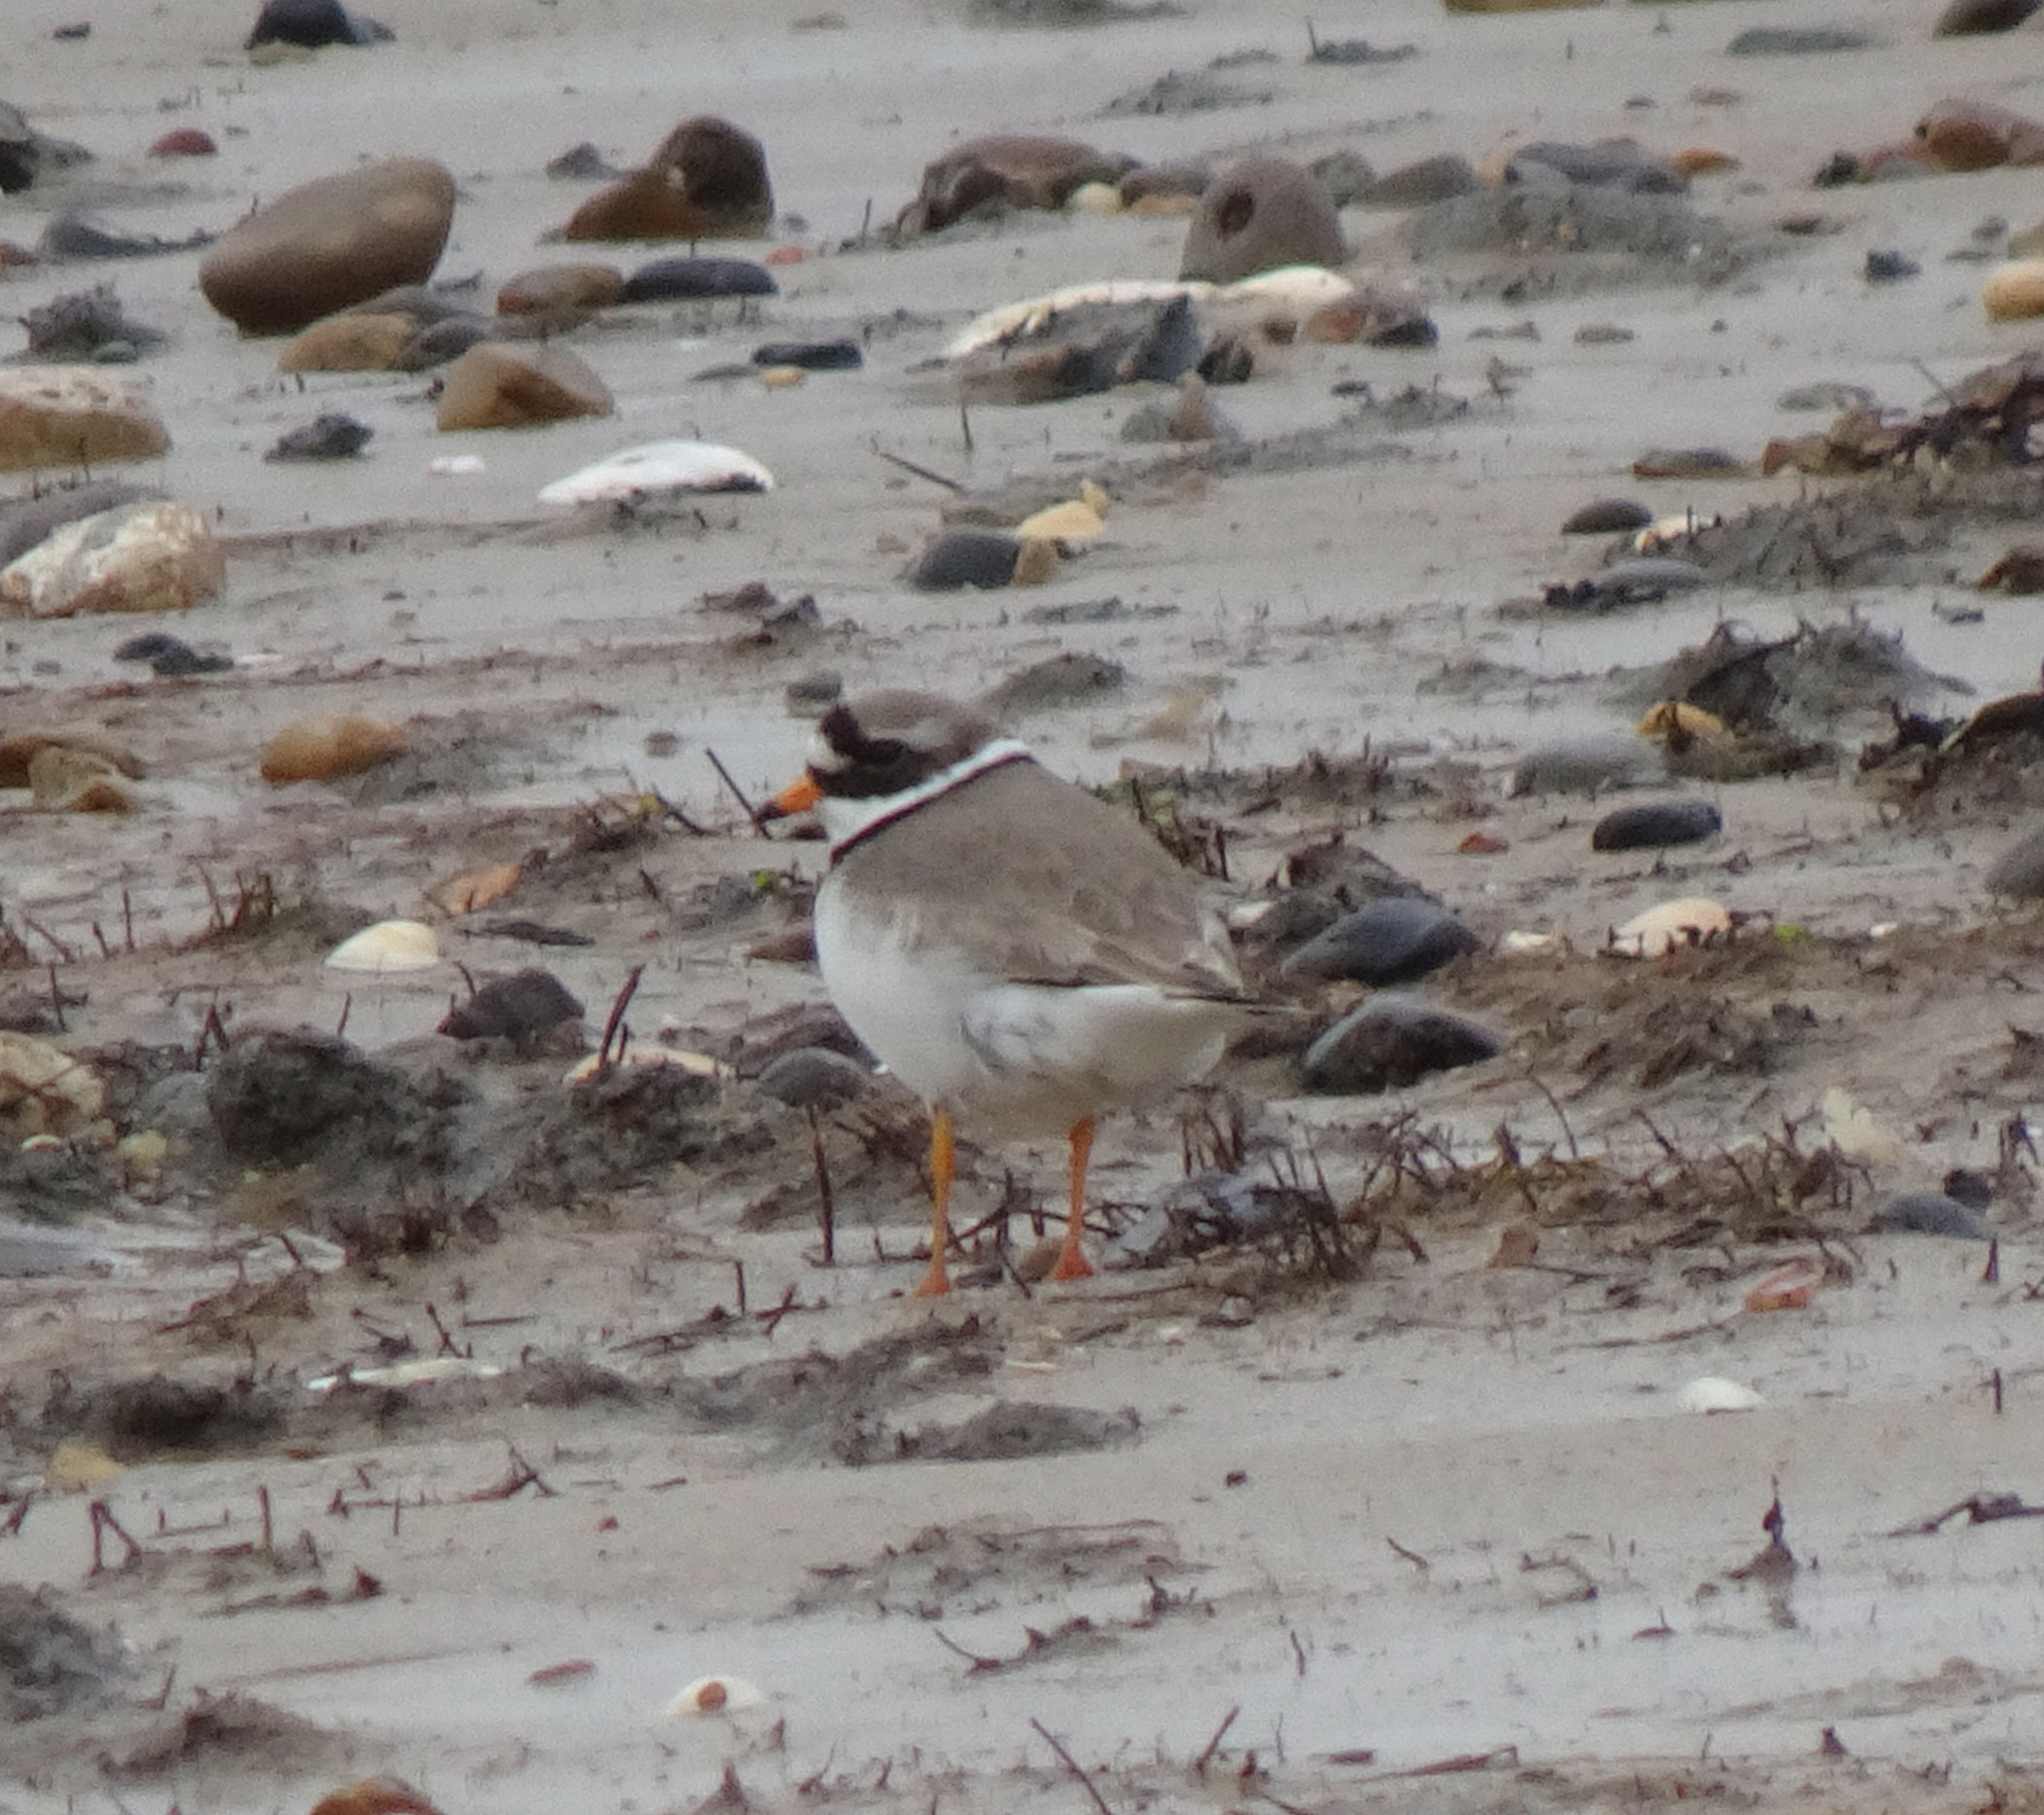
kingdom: Animalia
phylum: Chordata
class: Aves
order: Charadriiformes
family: Charadriidae
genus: Charadrius
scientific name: Charadrius hiaticula
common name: Common ringed plover
